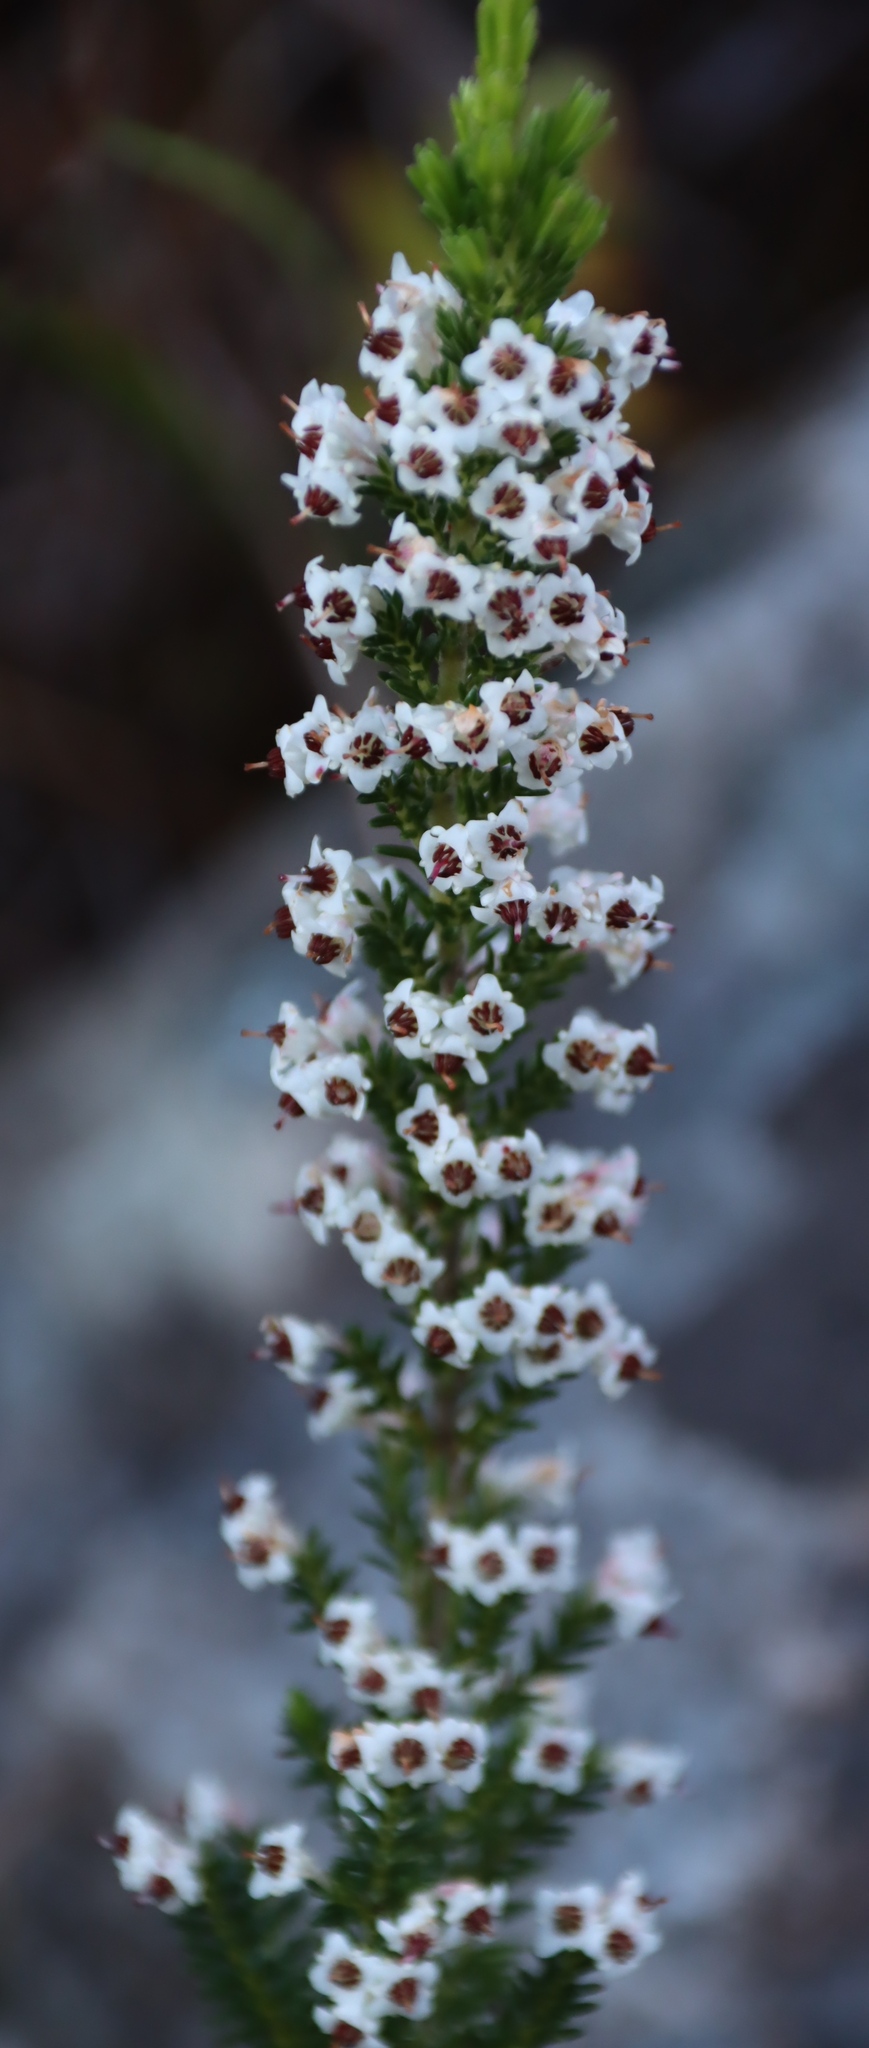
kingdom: Plantae
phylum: Tracheophyta
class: Magnoliopsida
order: Ericales
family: Ericaceae
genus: Erica
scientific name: Erica calycina
